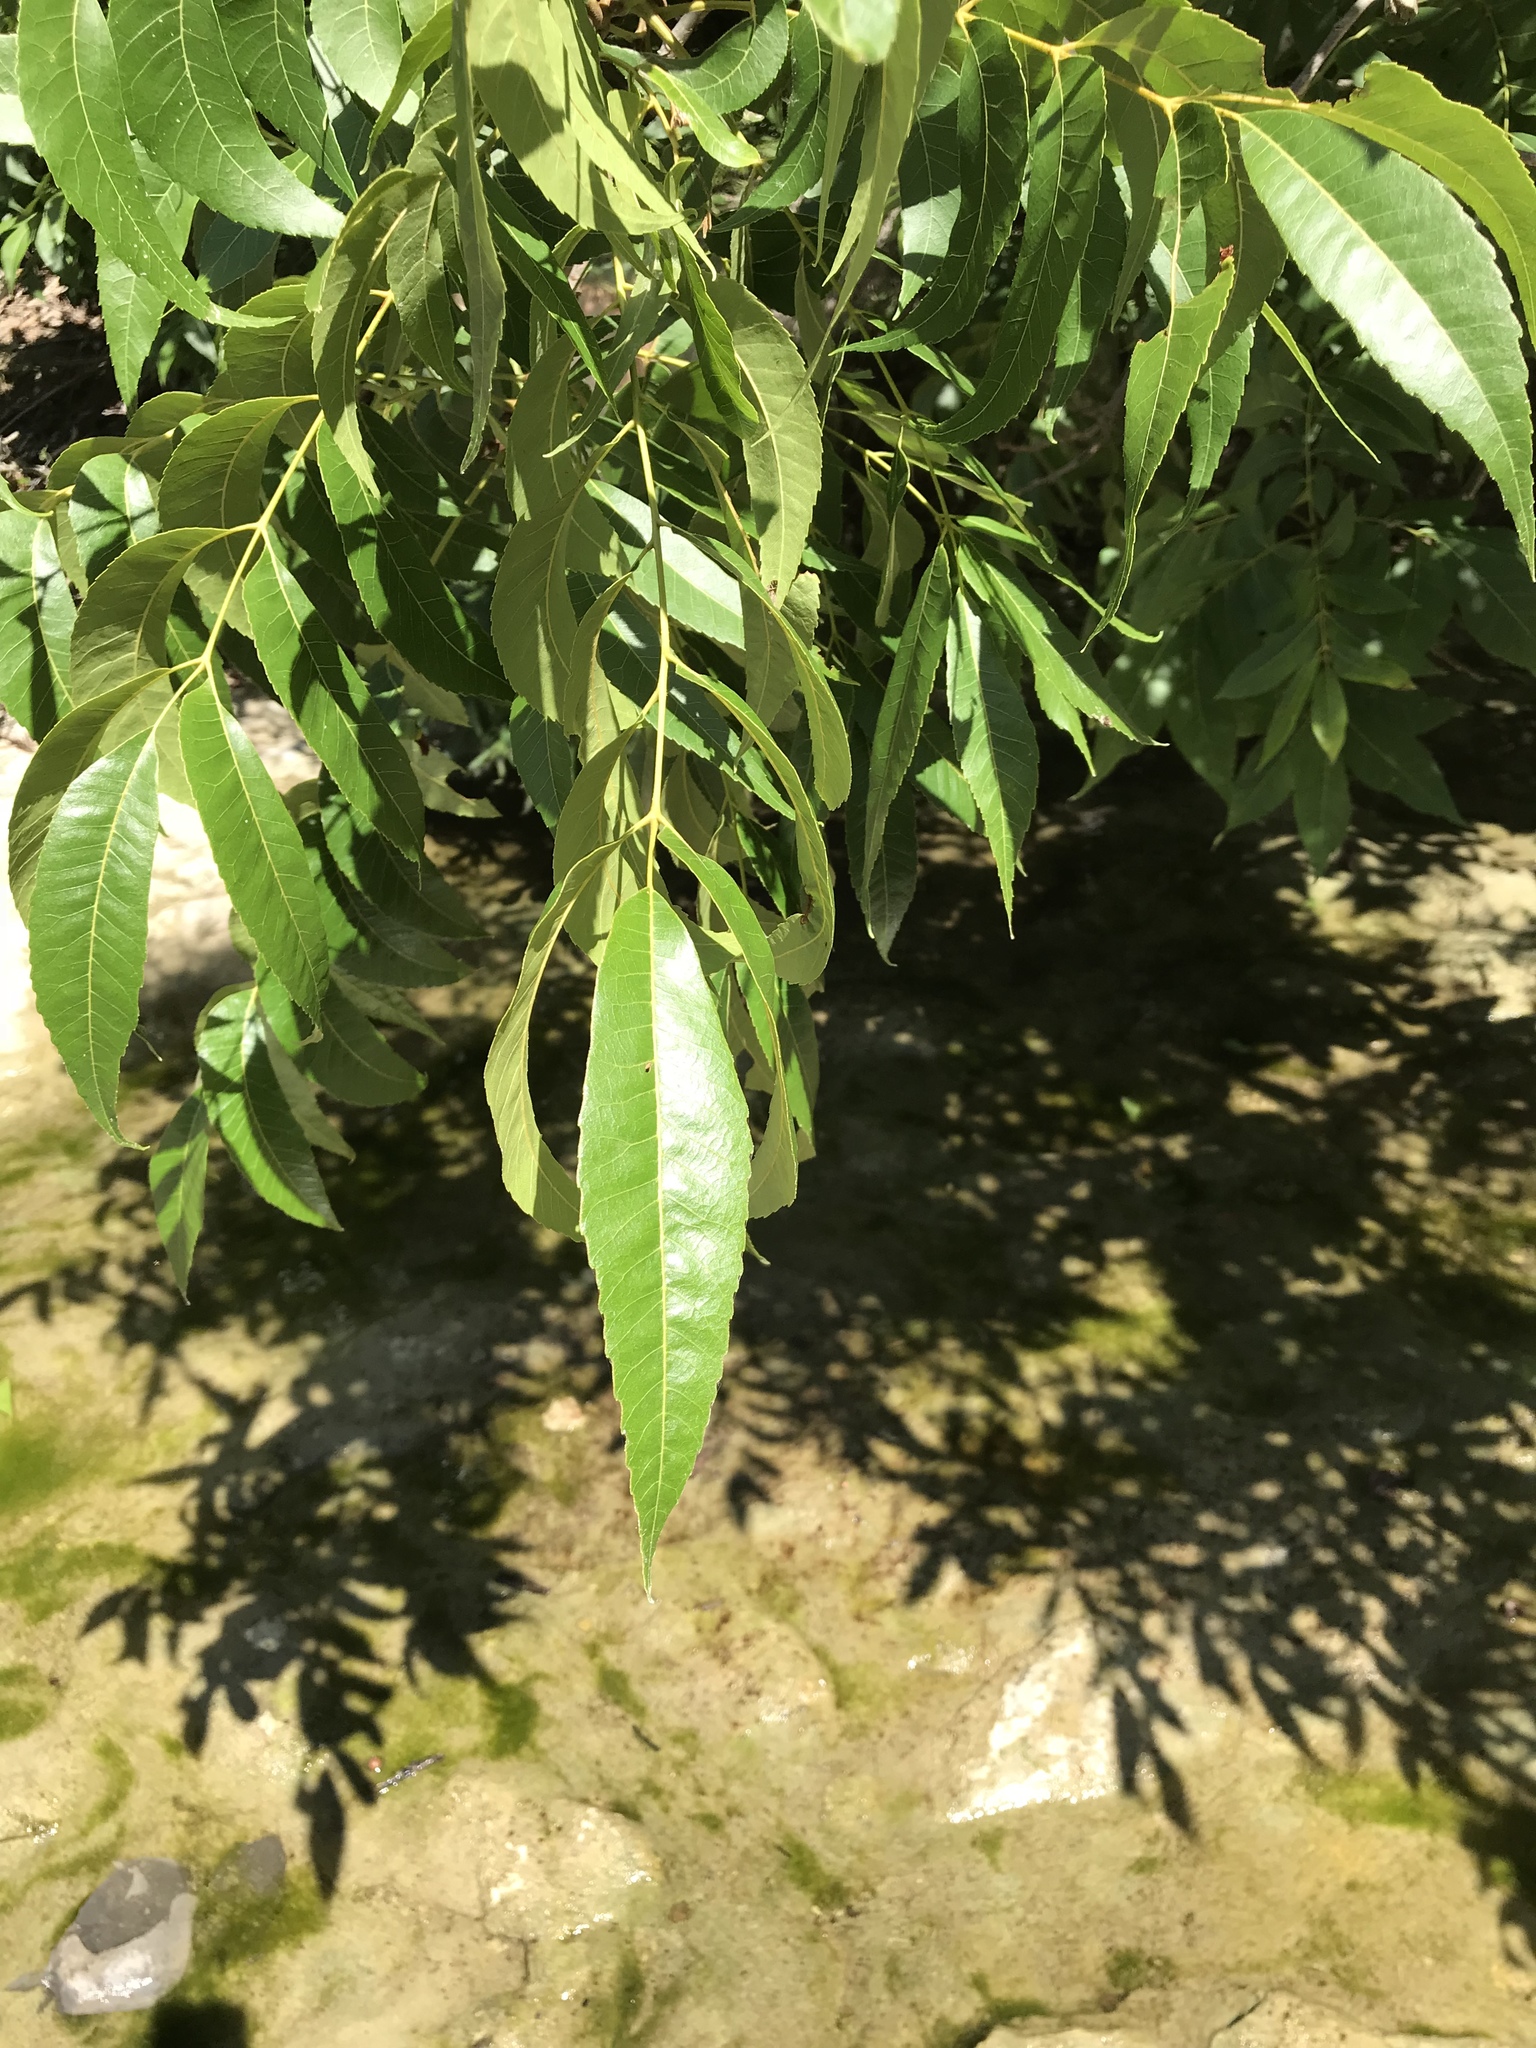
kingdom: Plantae
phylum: Tracheophyta
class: Magnoliopsida
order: Fagales
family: Juglandaceae
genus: Carya
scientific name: Carya illinoinensis
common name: Pecan
